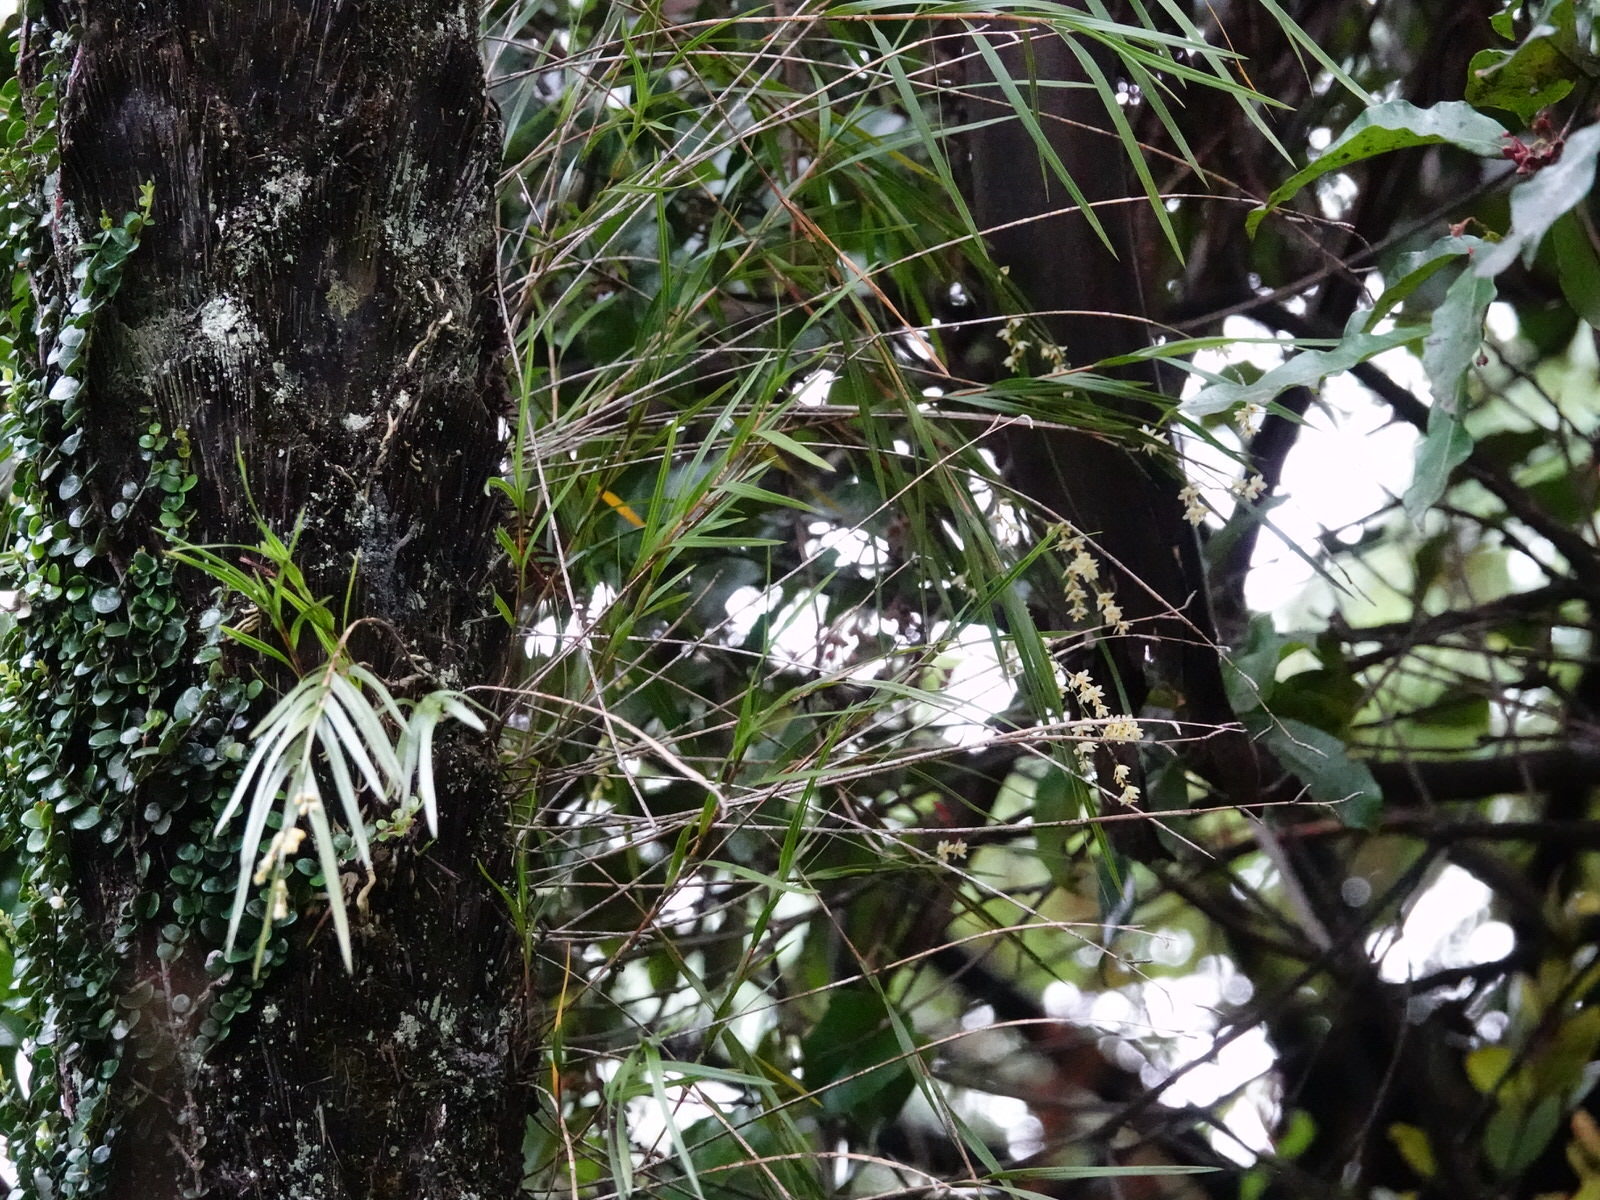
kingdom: Plantae
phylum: Tracheophyta
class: Liliopsida
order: Asparagales
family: Orchidaceae
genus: Earina
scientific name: Earina mucronata
